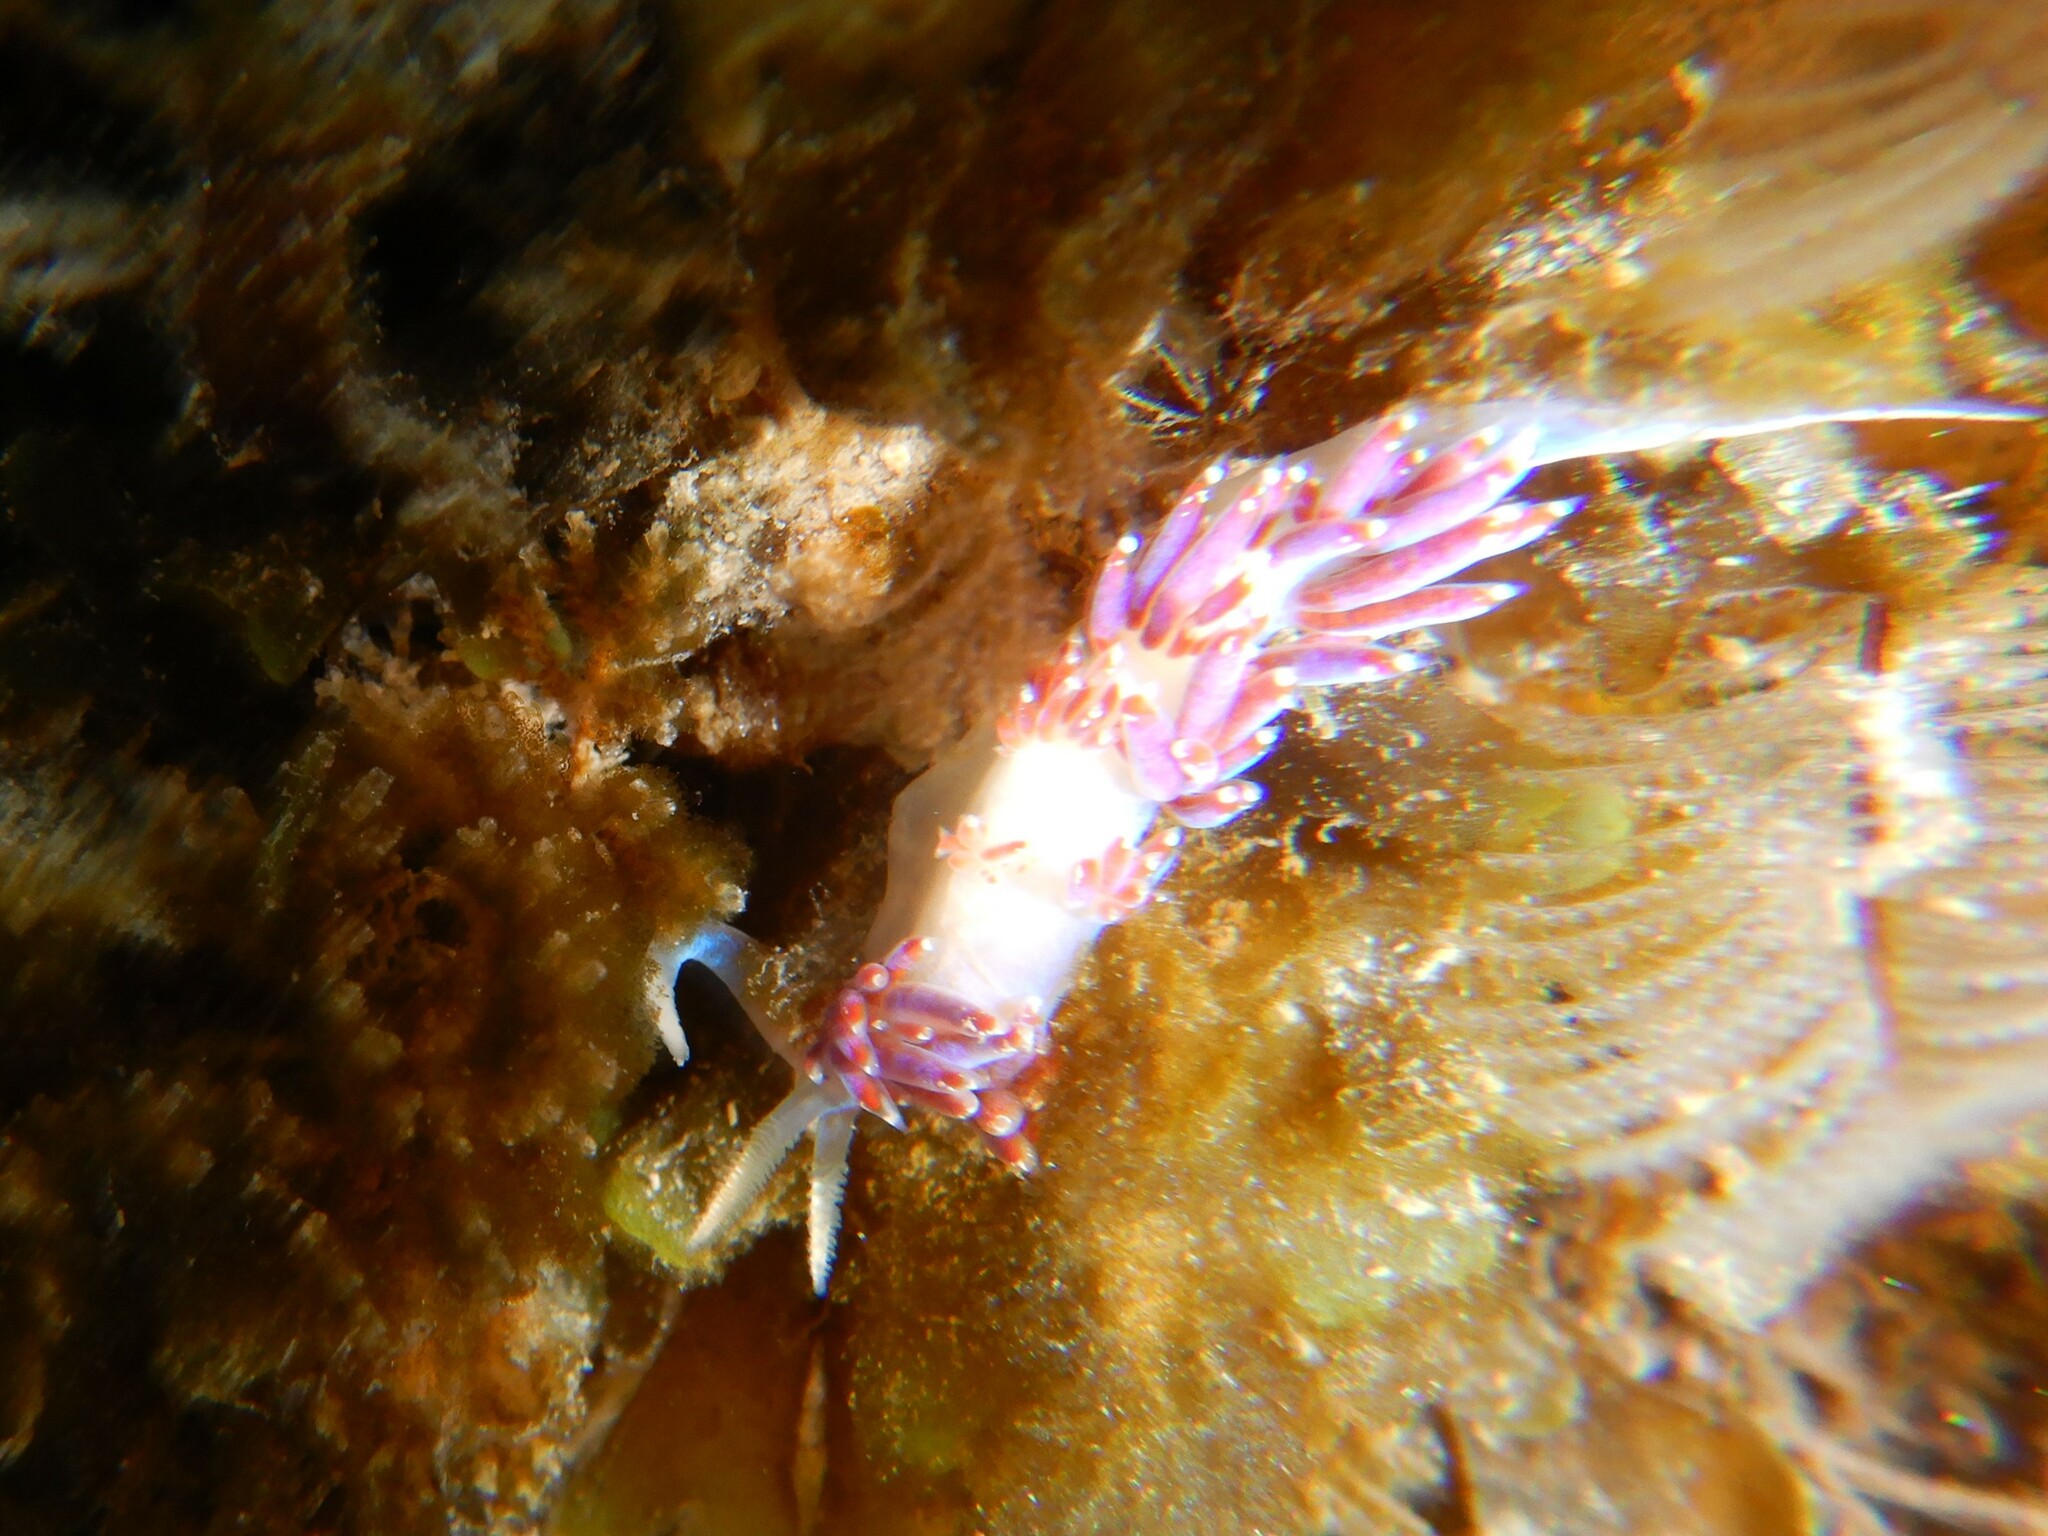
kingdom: Animalia
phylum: Mollusca
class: Gastropoda
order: Nudibranchia
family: Facelinidae
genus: Facelina
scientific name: Facelina auriculata
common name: Slender facelina
